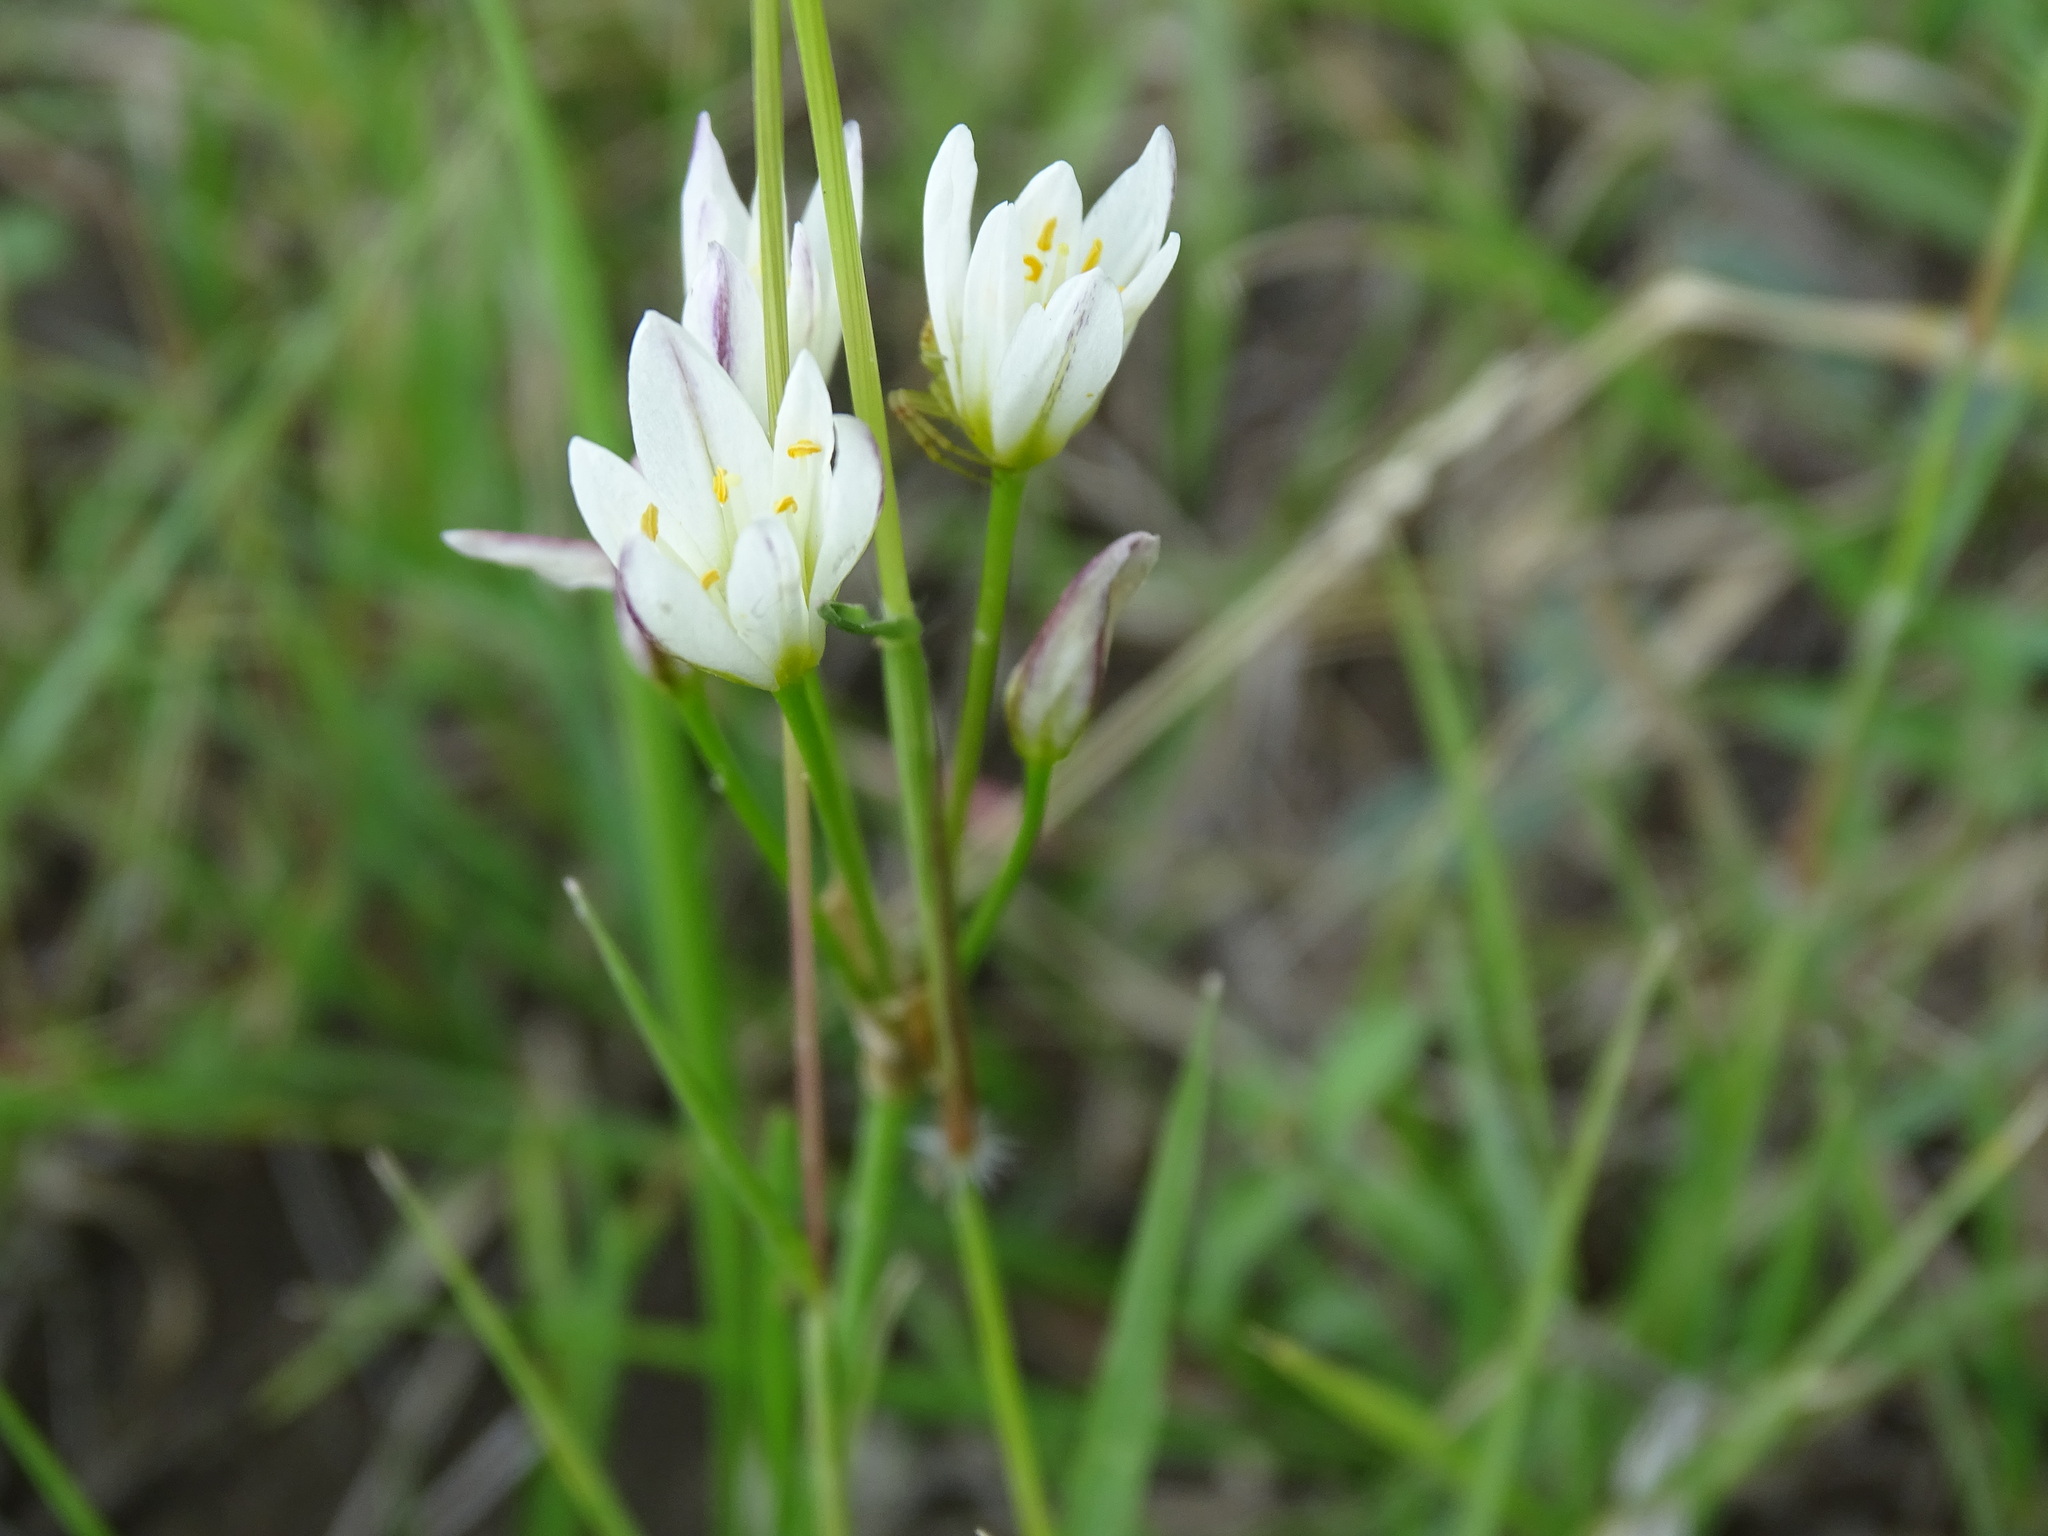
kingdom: Plantae
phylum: Tracheophyta
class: Liliopsida
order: Asparagales
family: Amaryllidaceae
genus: Nothoscordum
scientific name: Nothoscordum gracile
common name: Slender false garlic
